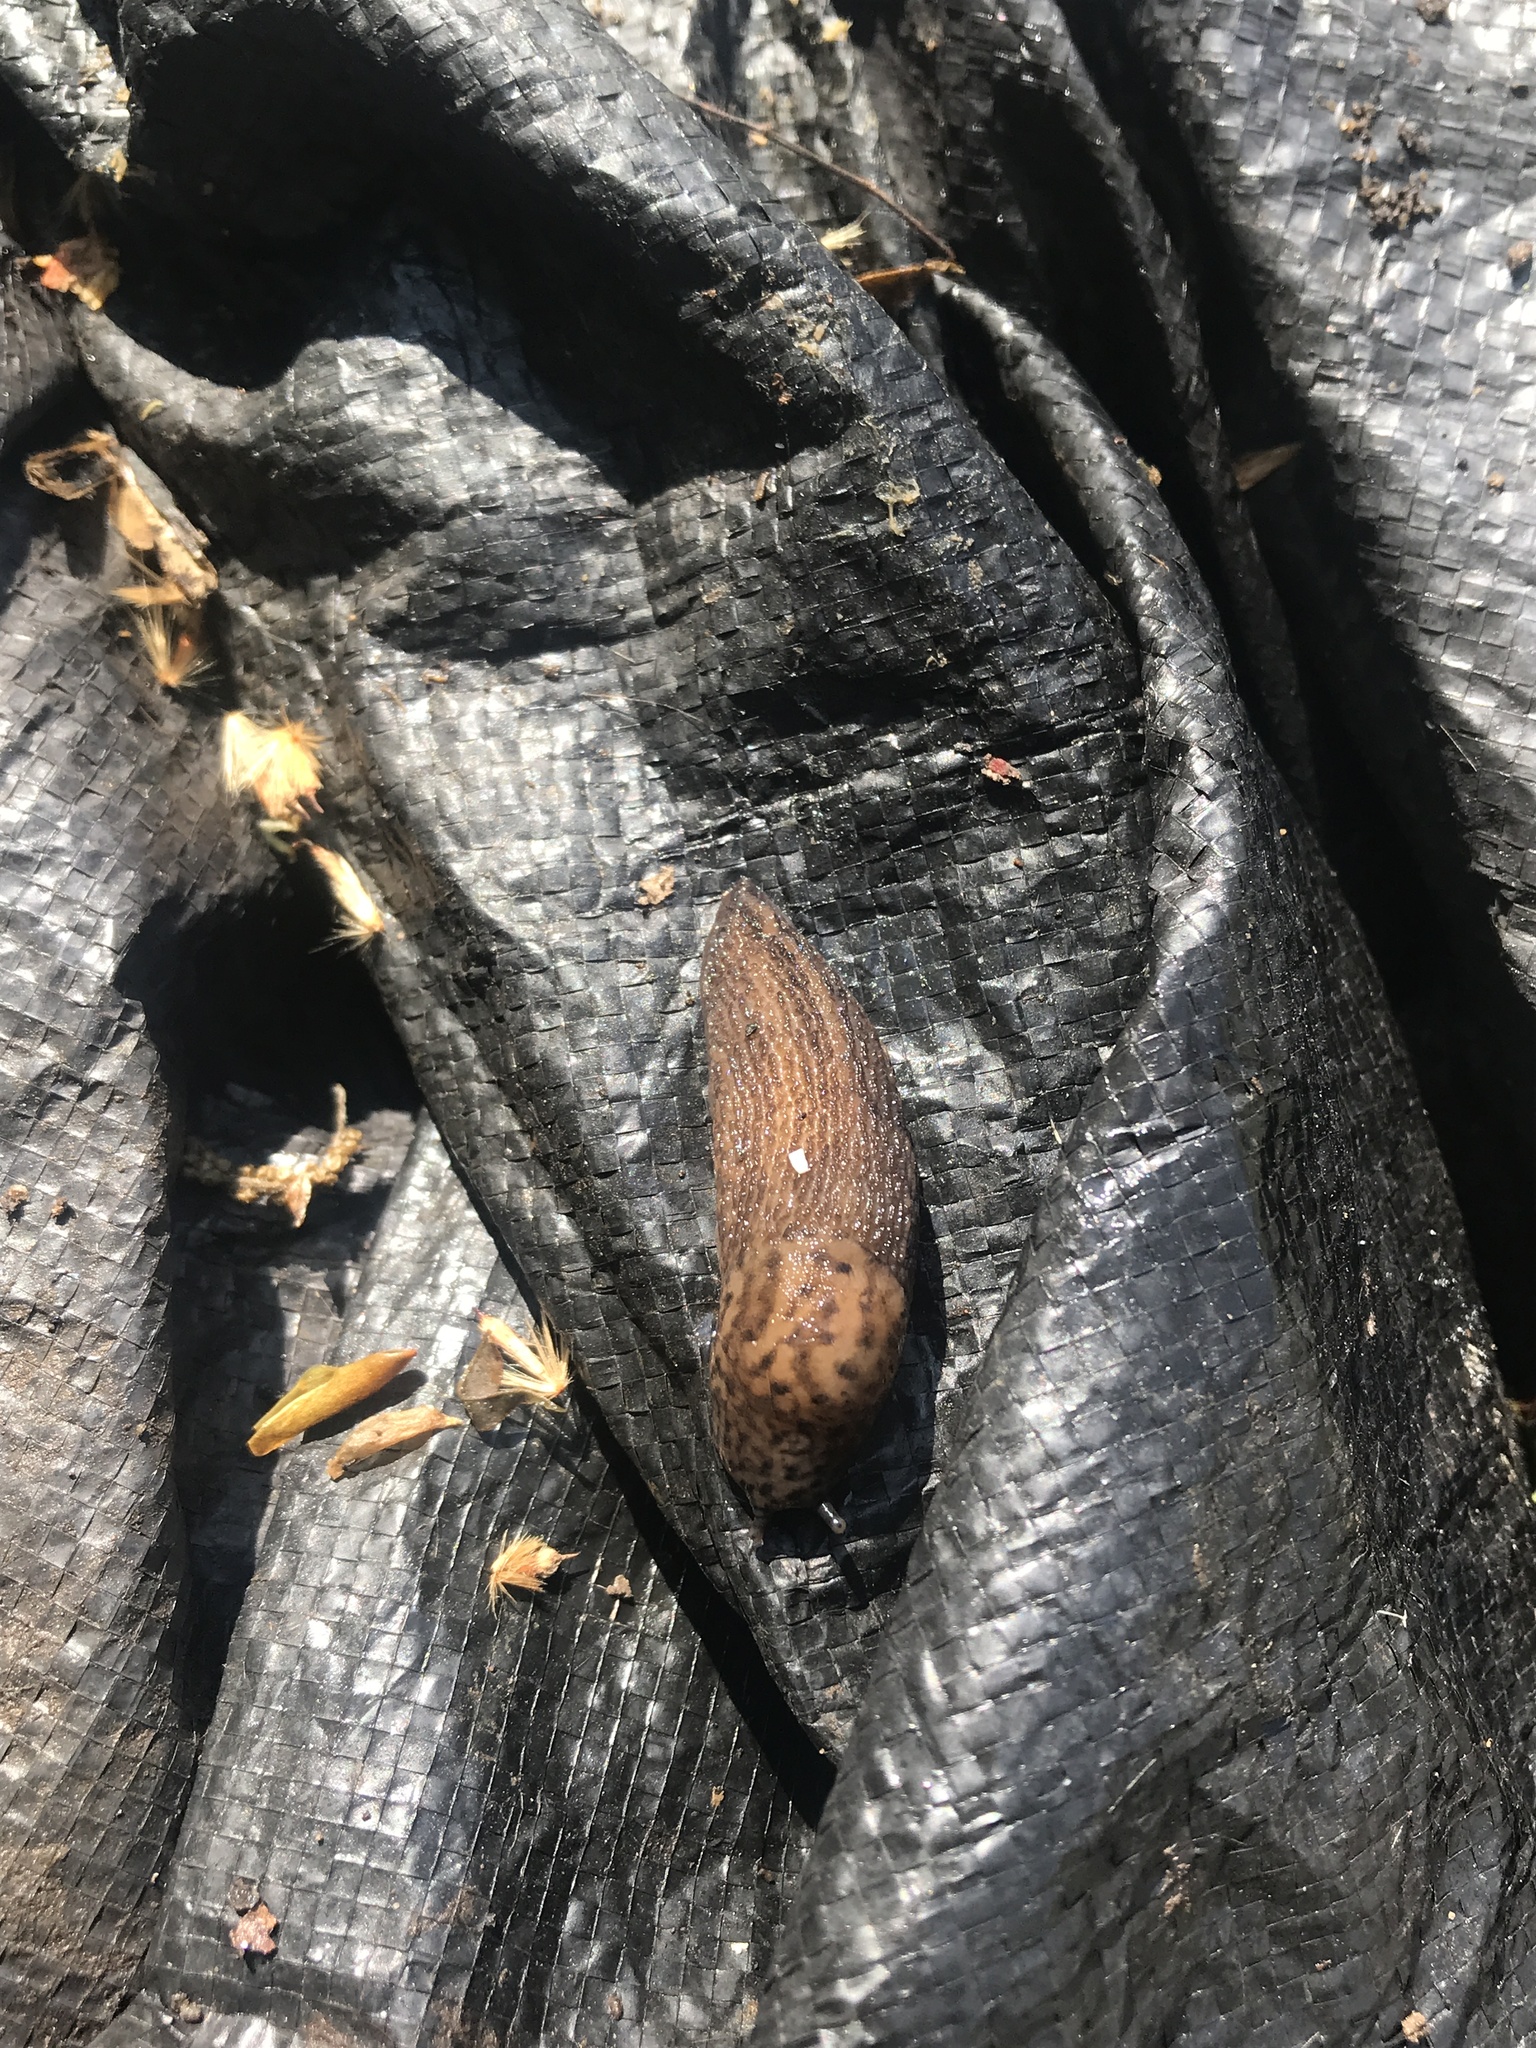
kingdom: Animalia
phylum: Mollusca
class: Gastropoda
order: Stylommatophora
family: Limacidae
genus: Limax
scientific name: Limax maximus
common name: Great grey slug
